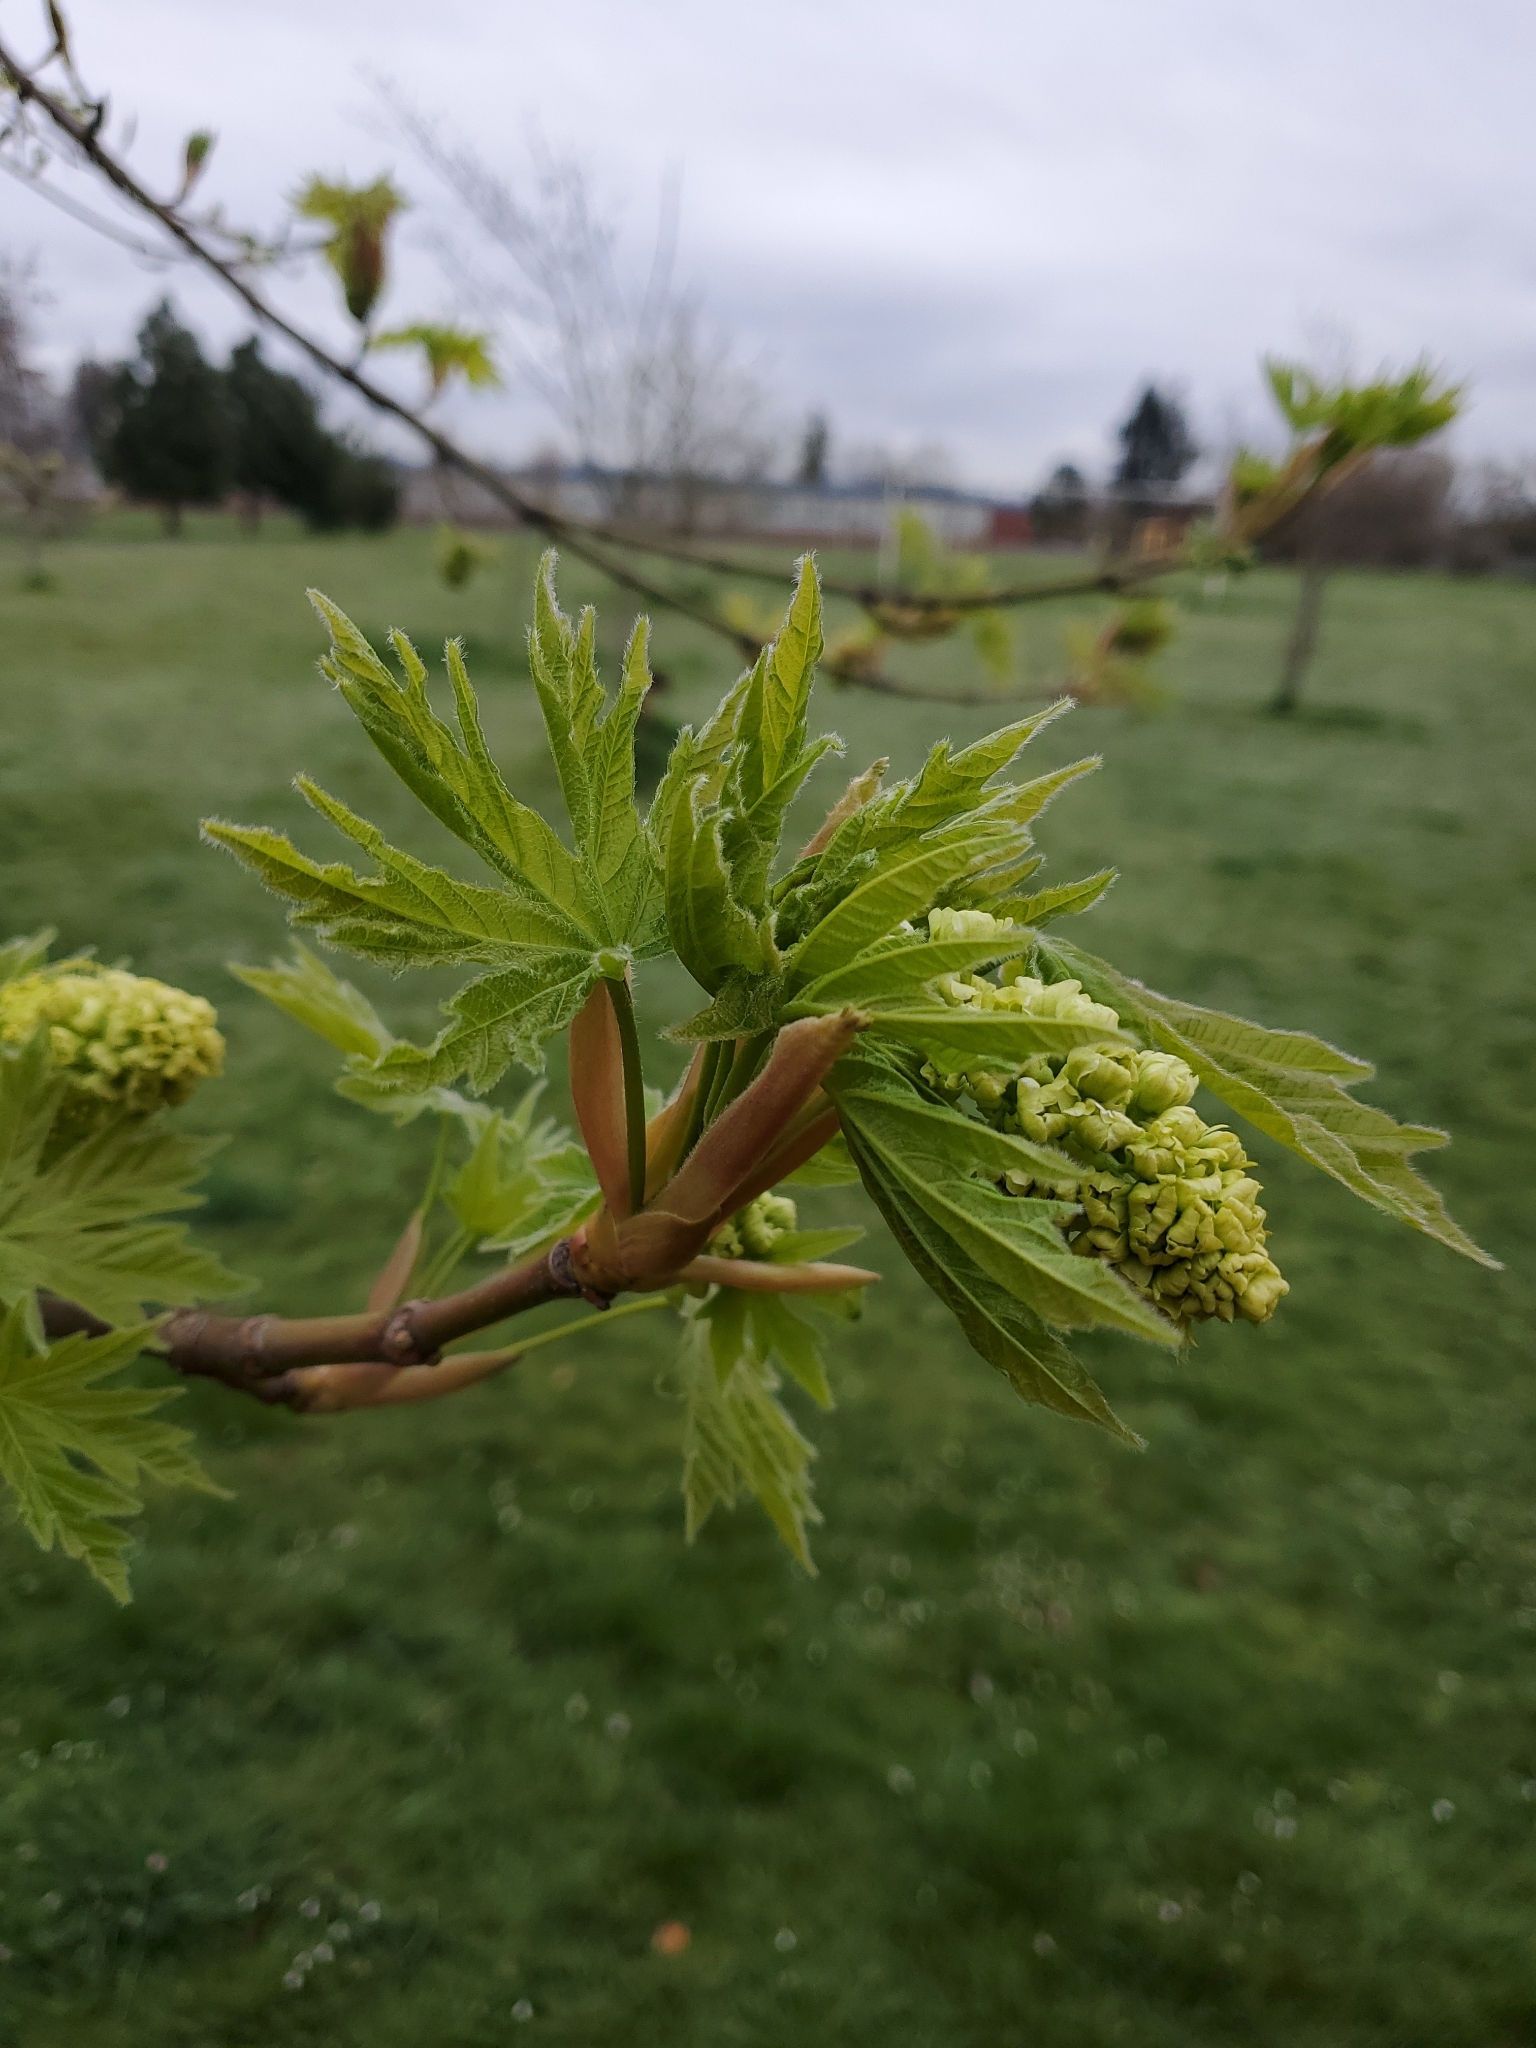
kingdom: Plantae
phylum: Tracheophyta
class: Magnoliopsida
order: Sapindales
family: Sapindaceae
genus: Acer
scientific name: Acer macrophyllum
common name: Oregon maple
